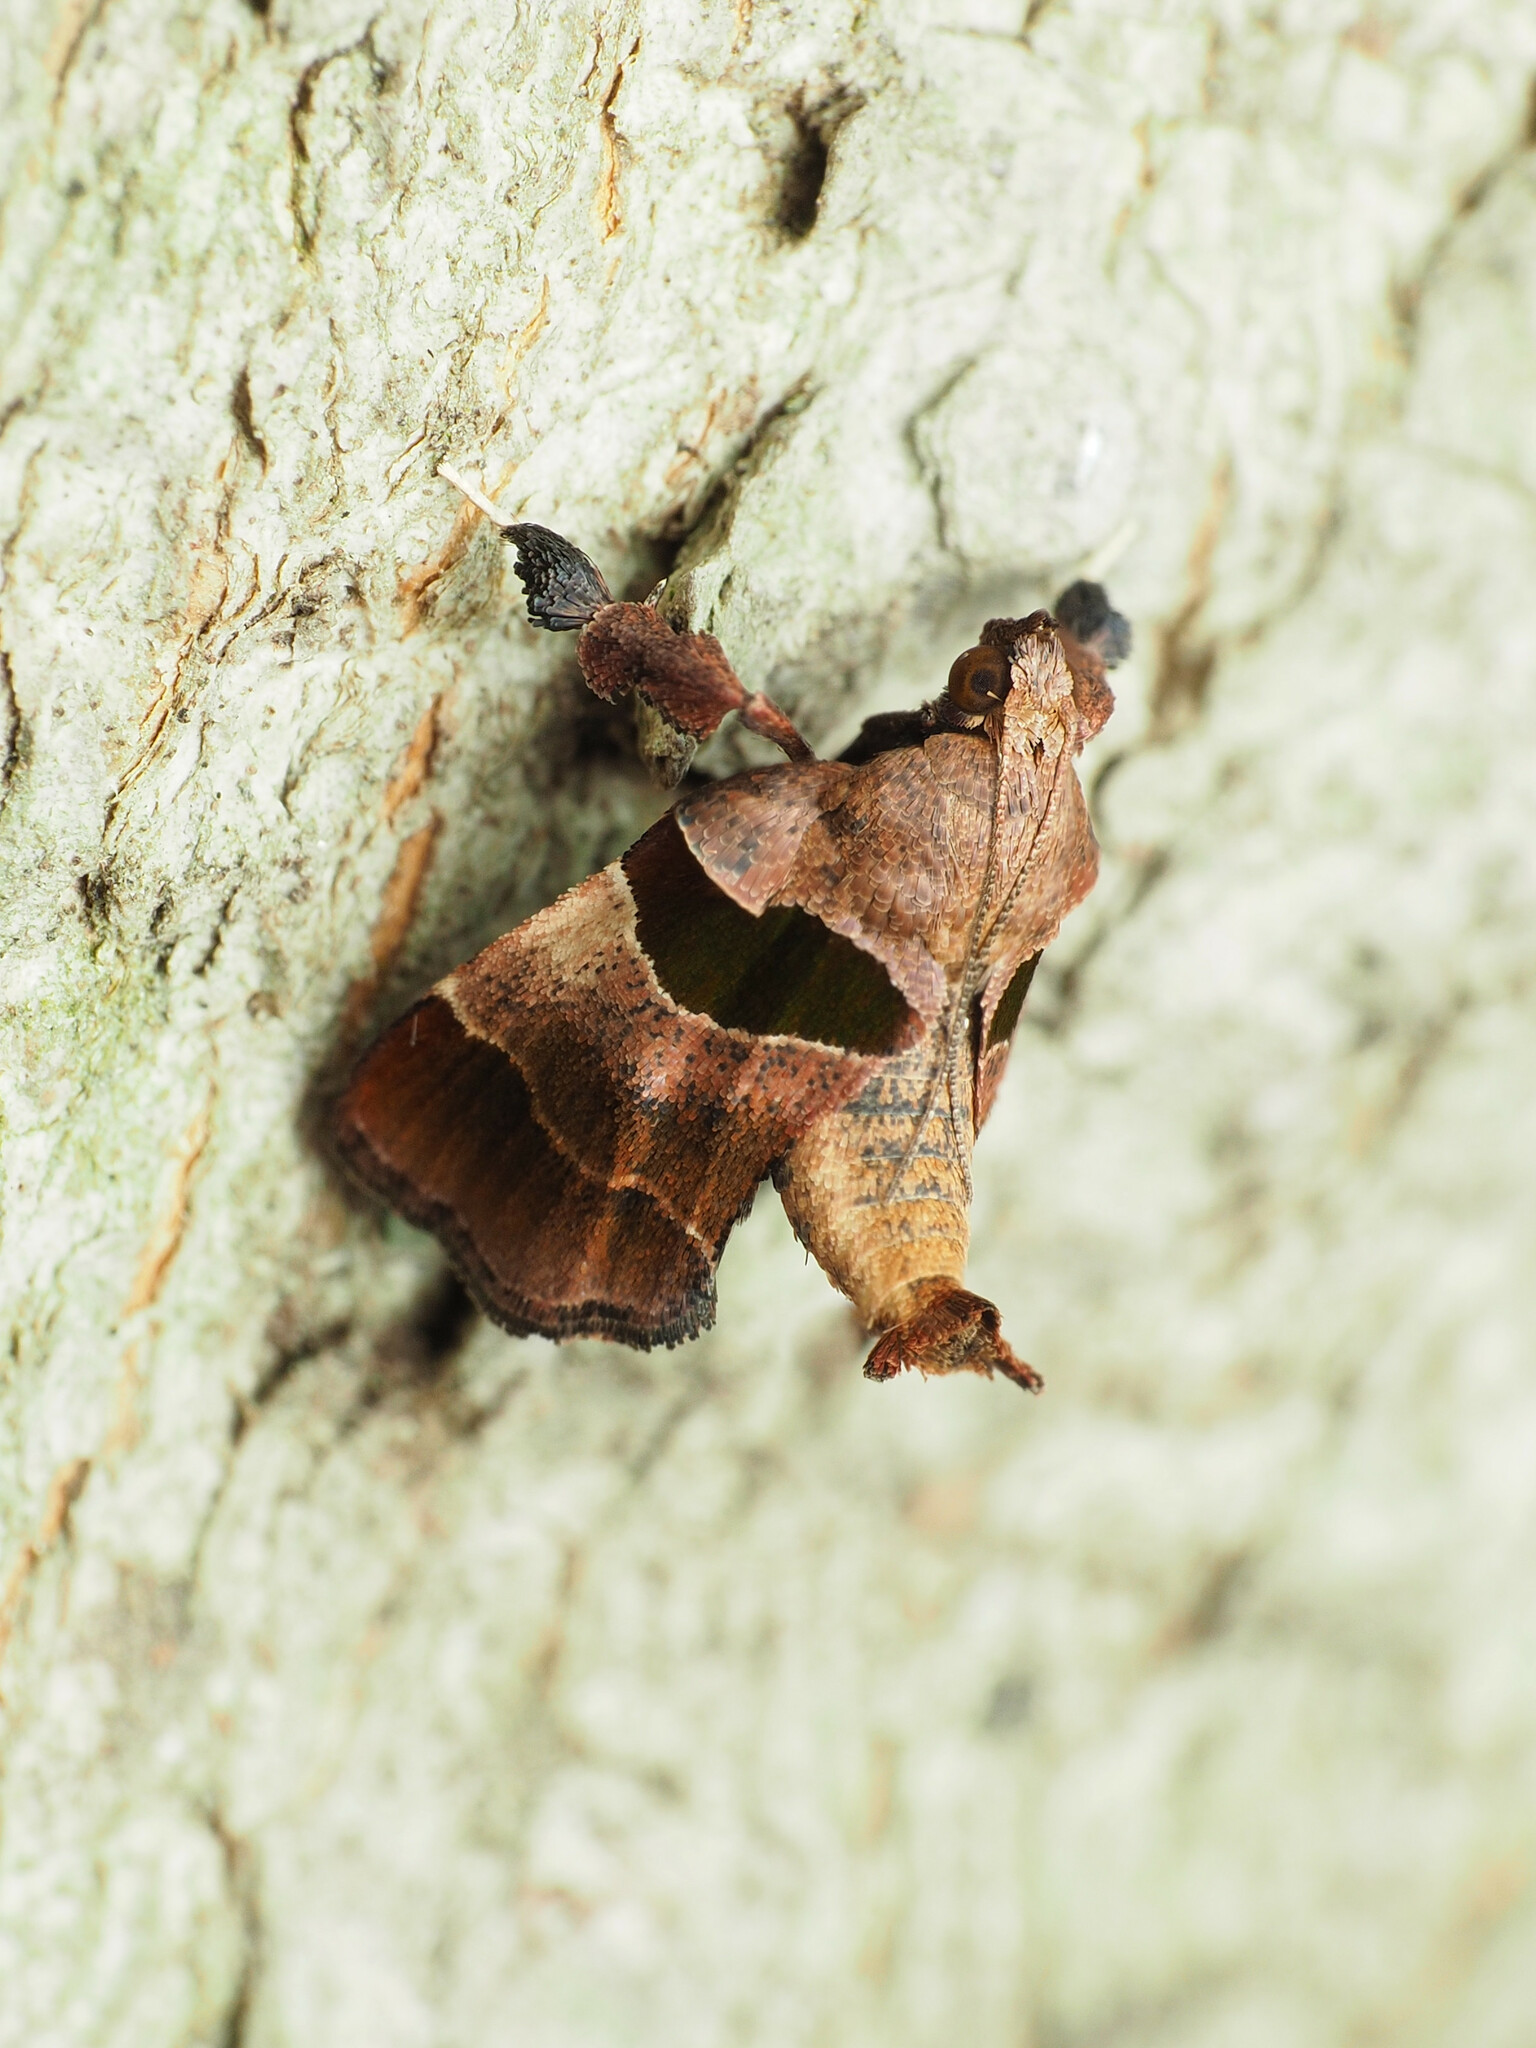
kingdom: Animalia
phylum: Arthropoda
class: Insecta
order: Lepidoptera
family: Pyralidae
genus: Tosale
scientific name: Tosale oviplagalis
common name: Dimorphic tosale moth
